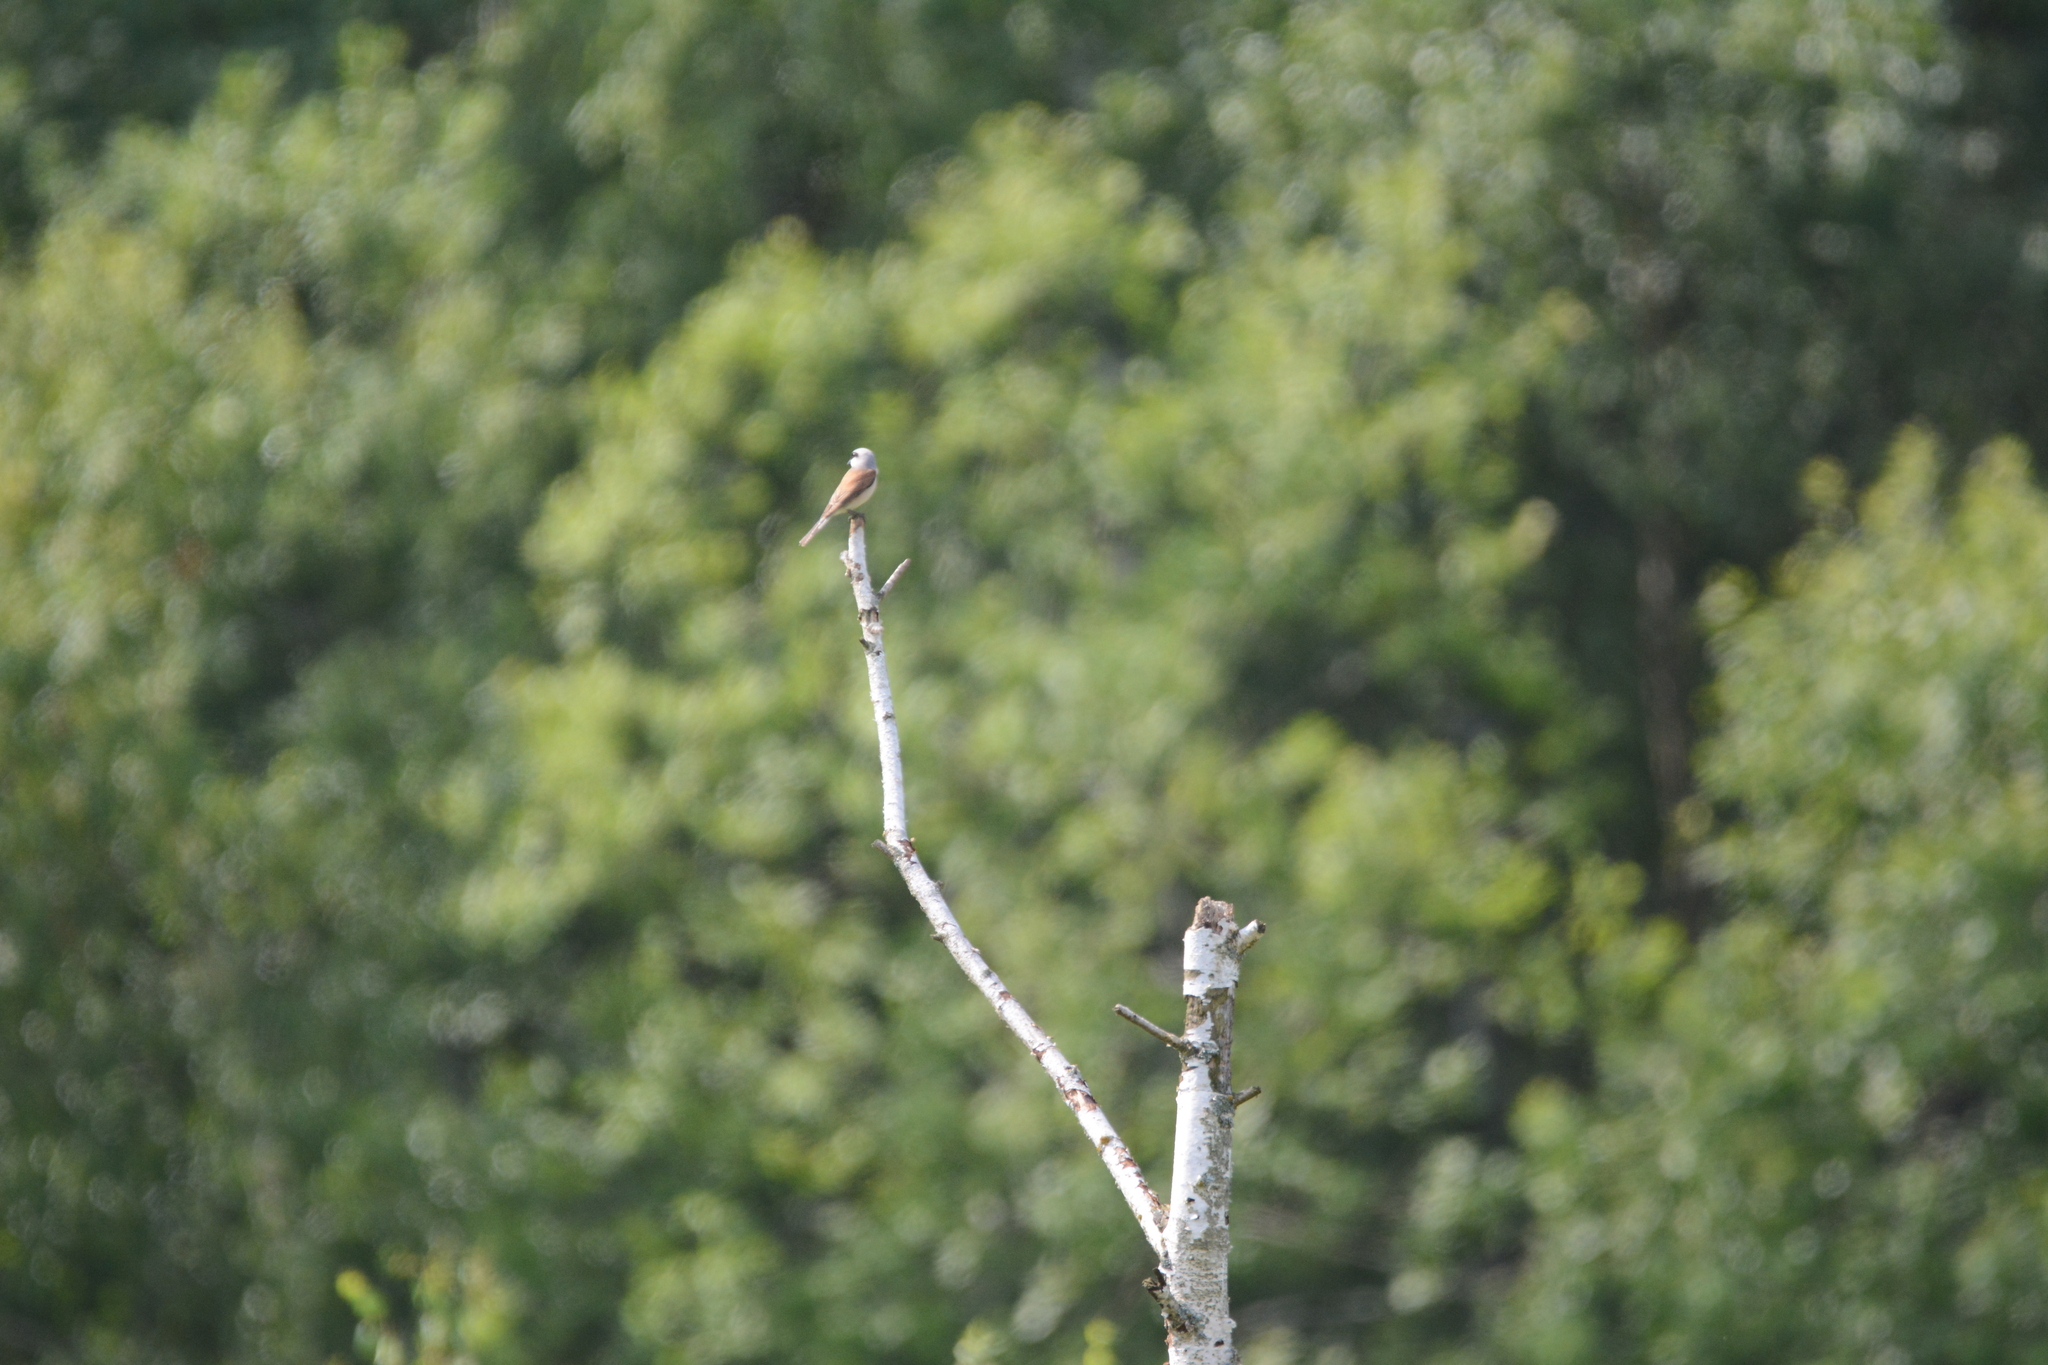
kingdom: Animalia
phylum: Chordata
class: Aves
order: Passeriformes
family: Laniidae
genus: Lanius
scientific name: Lanius collurio
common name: Red-backed shrike
